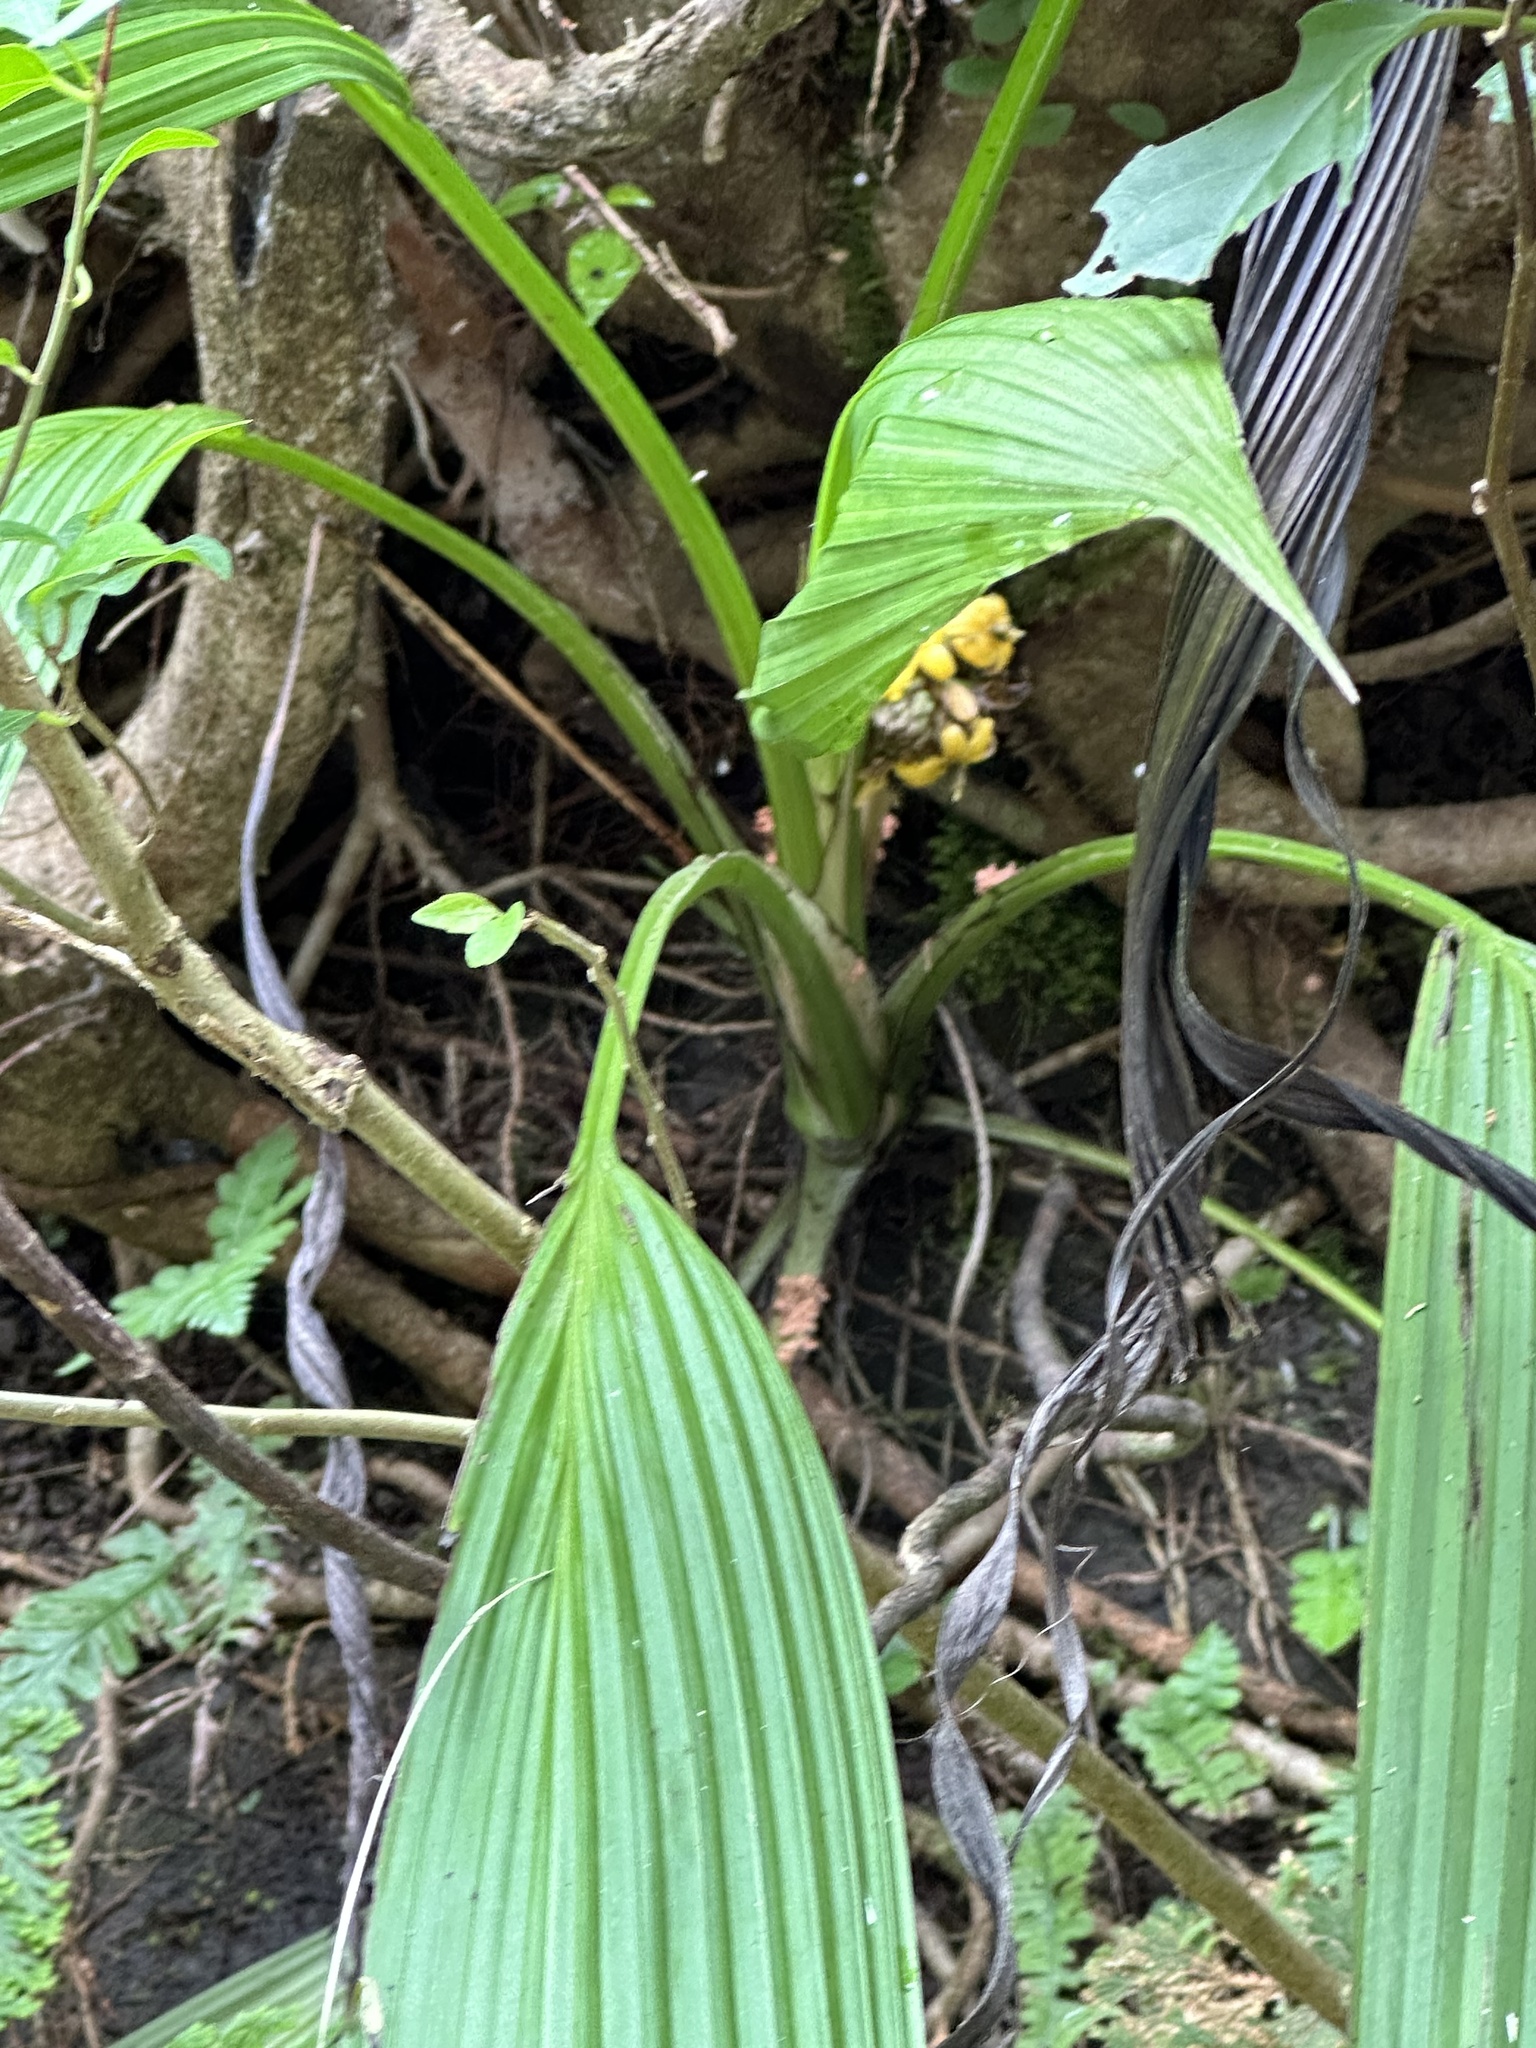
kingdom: Plantae
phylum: Tracheophyta
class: Liliopsida
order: Asparagales
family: Hypoxidaceae
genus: Curculigo
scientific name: Curculigo capitulata
